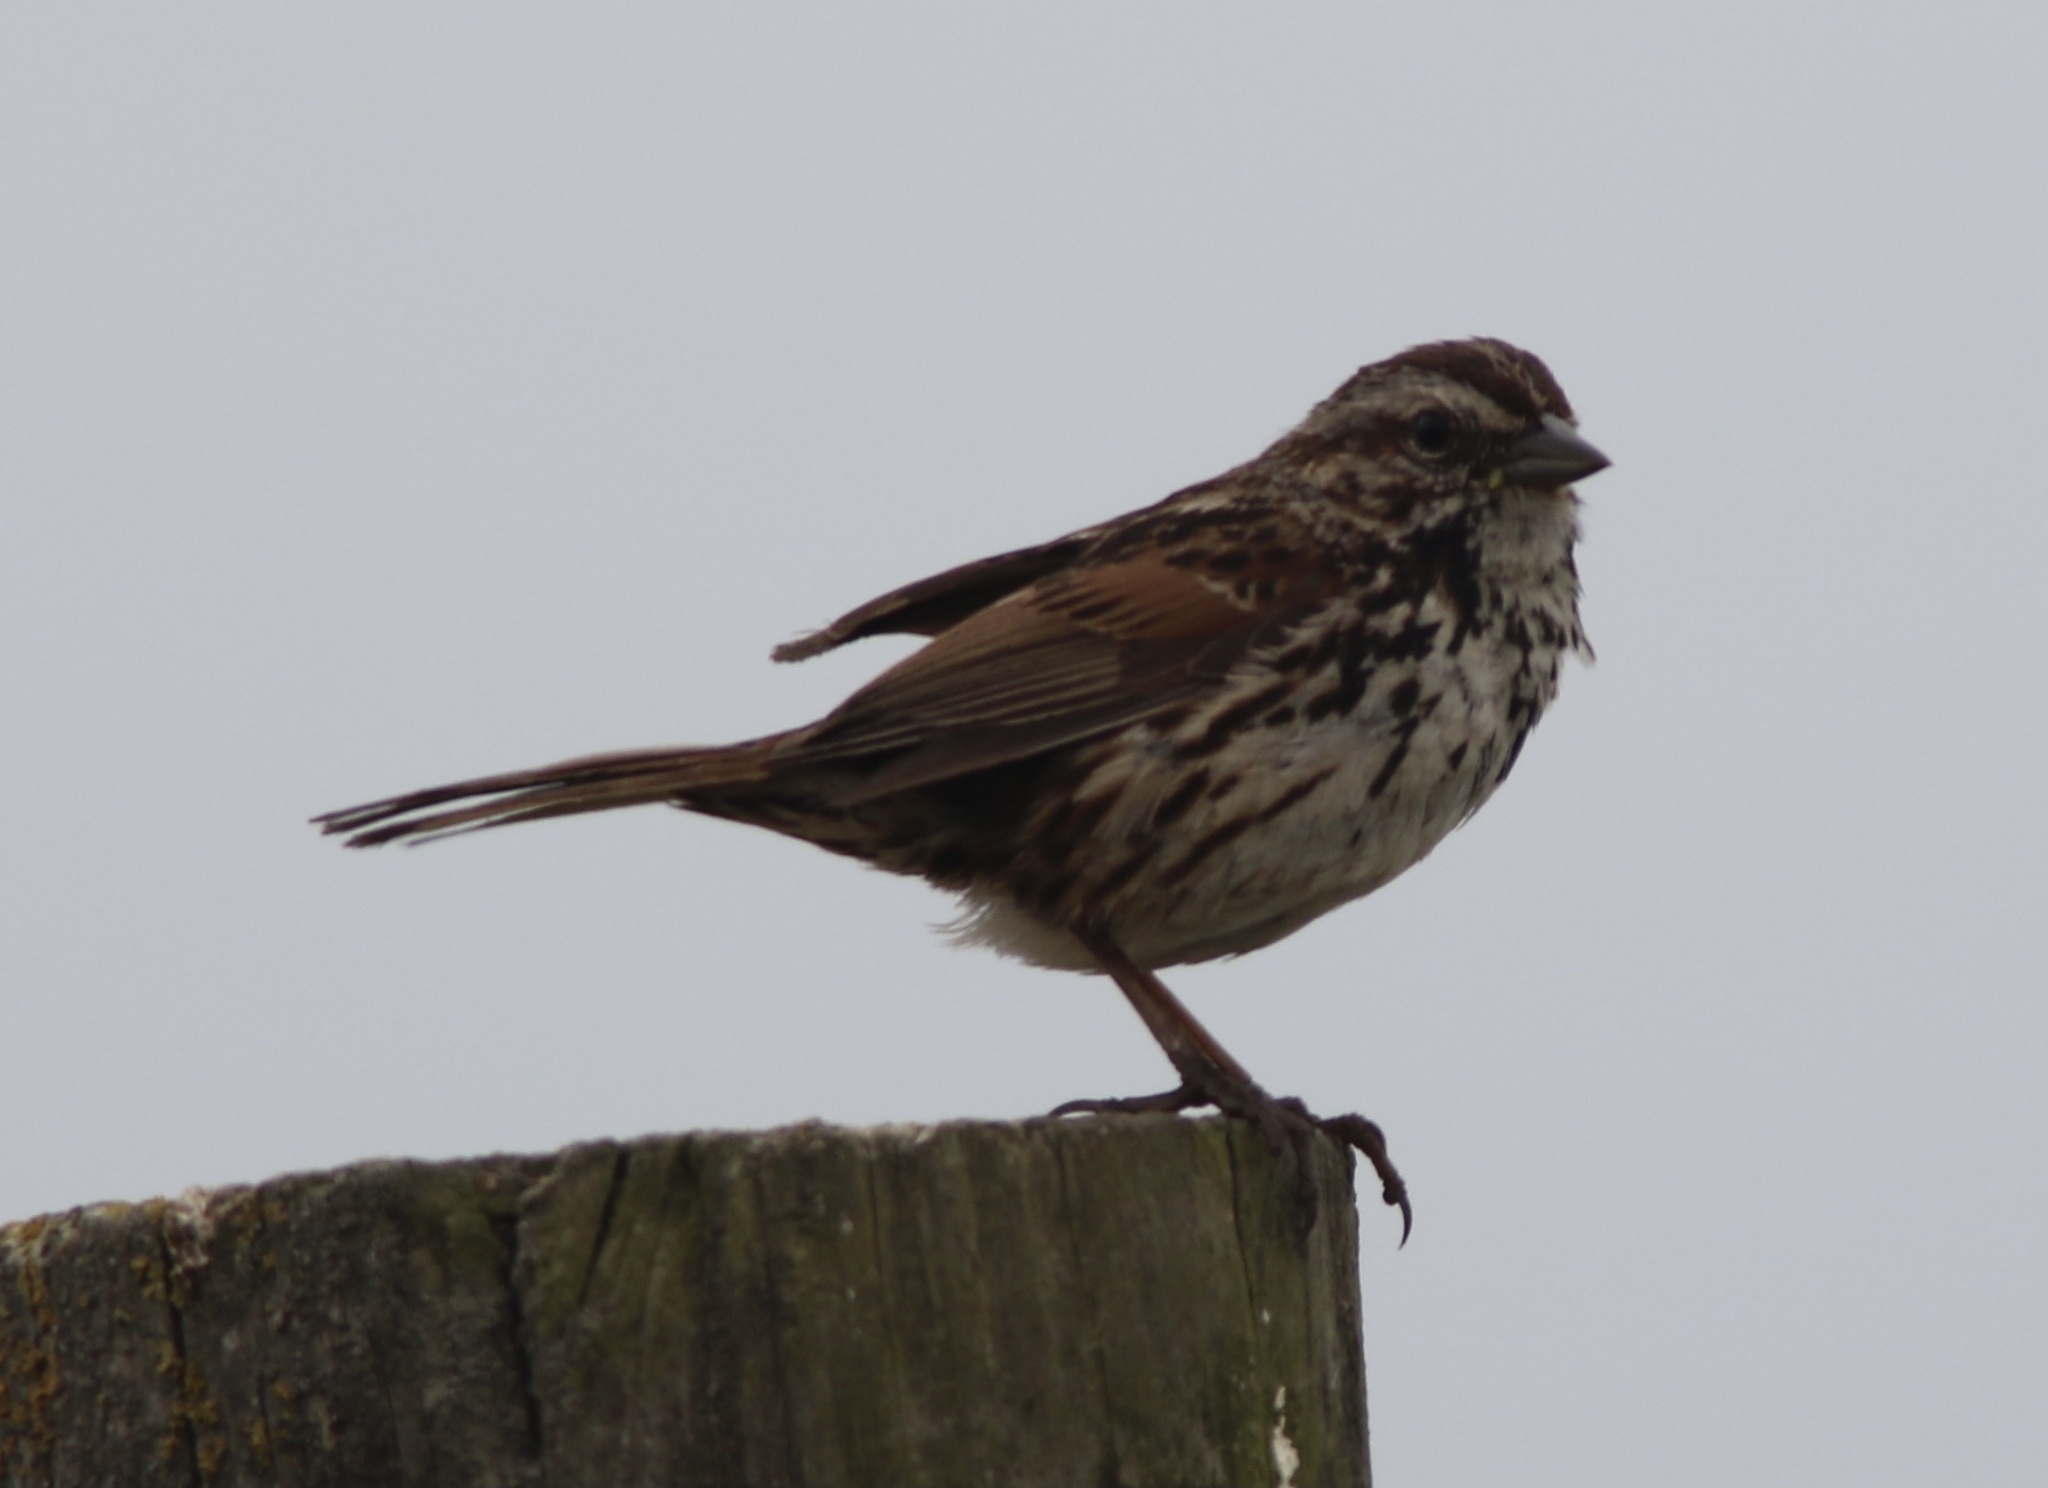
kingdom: Animalia
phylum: Chordata
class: Aves
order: Passeriformes
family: Passerellidae
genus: Melospiza
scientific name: Melospiza melodia
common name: Song sparrow
